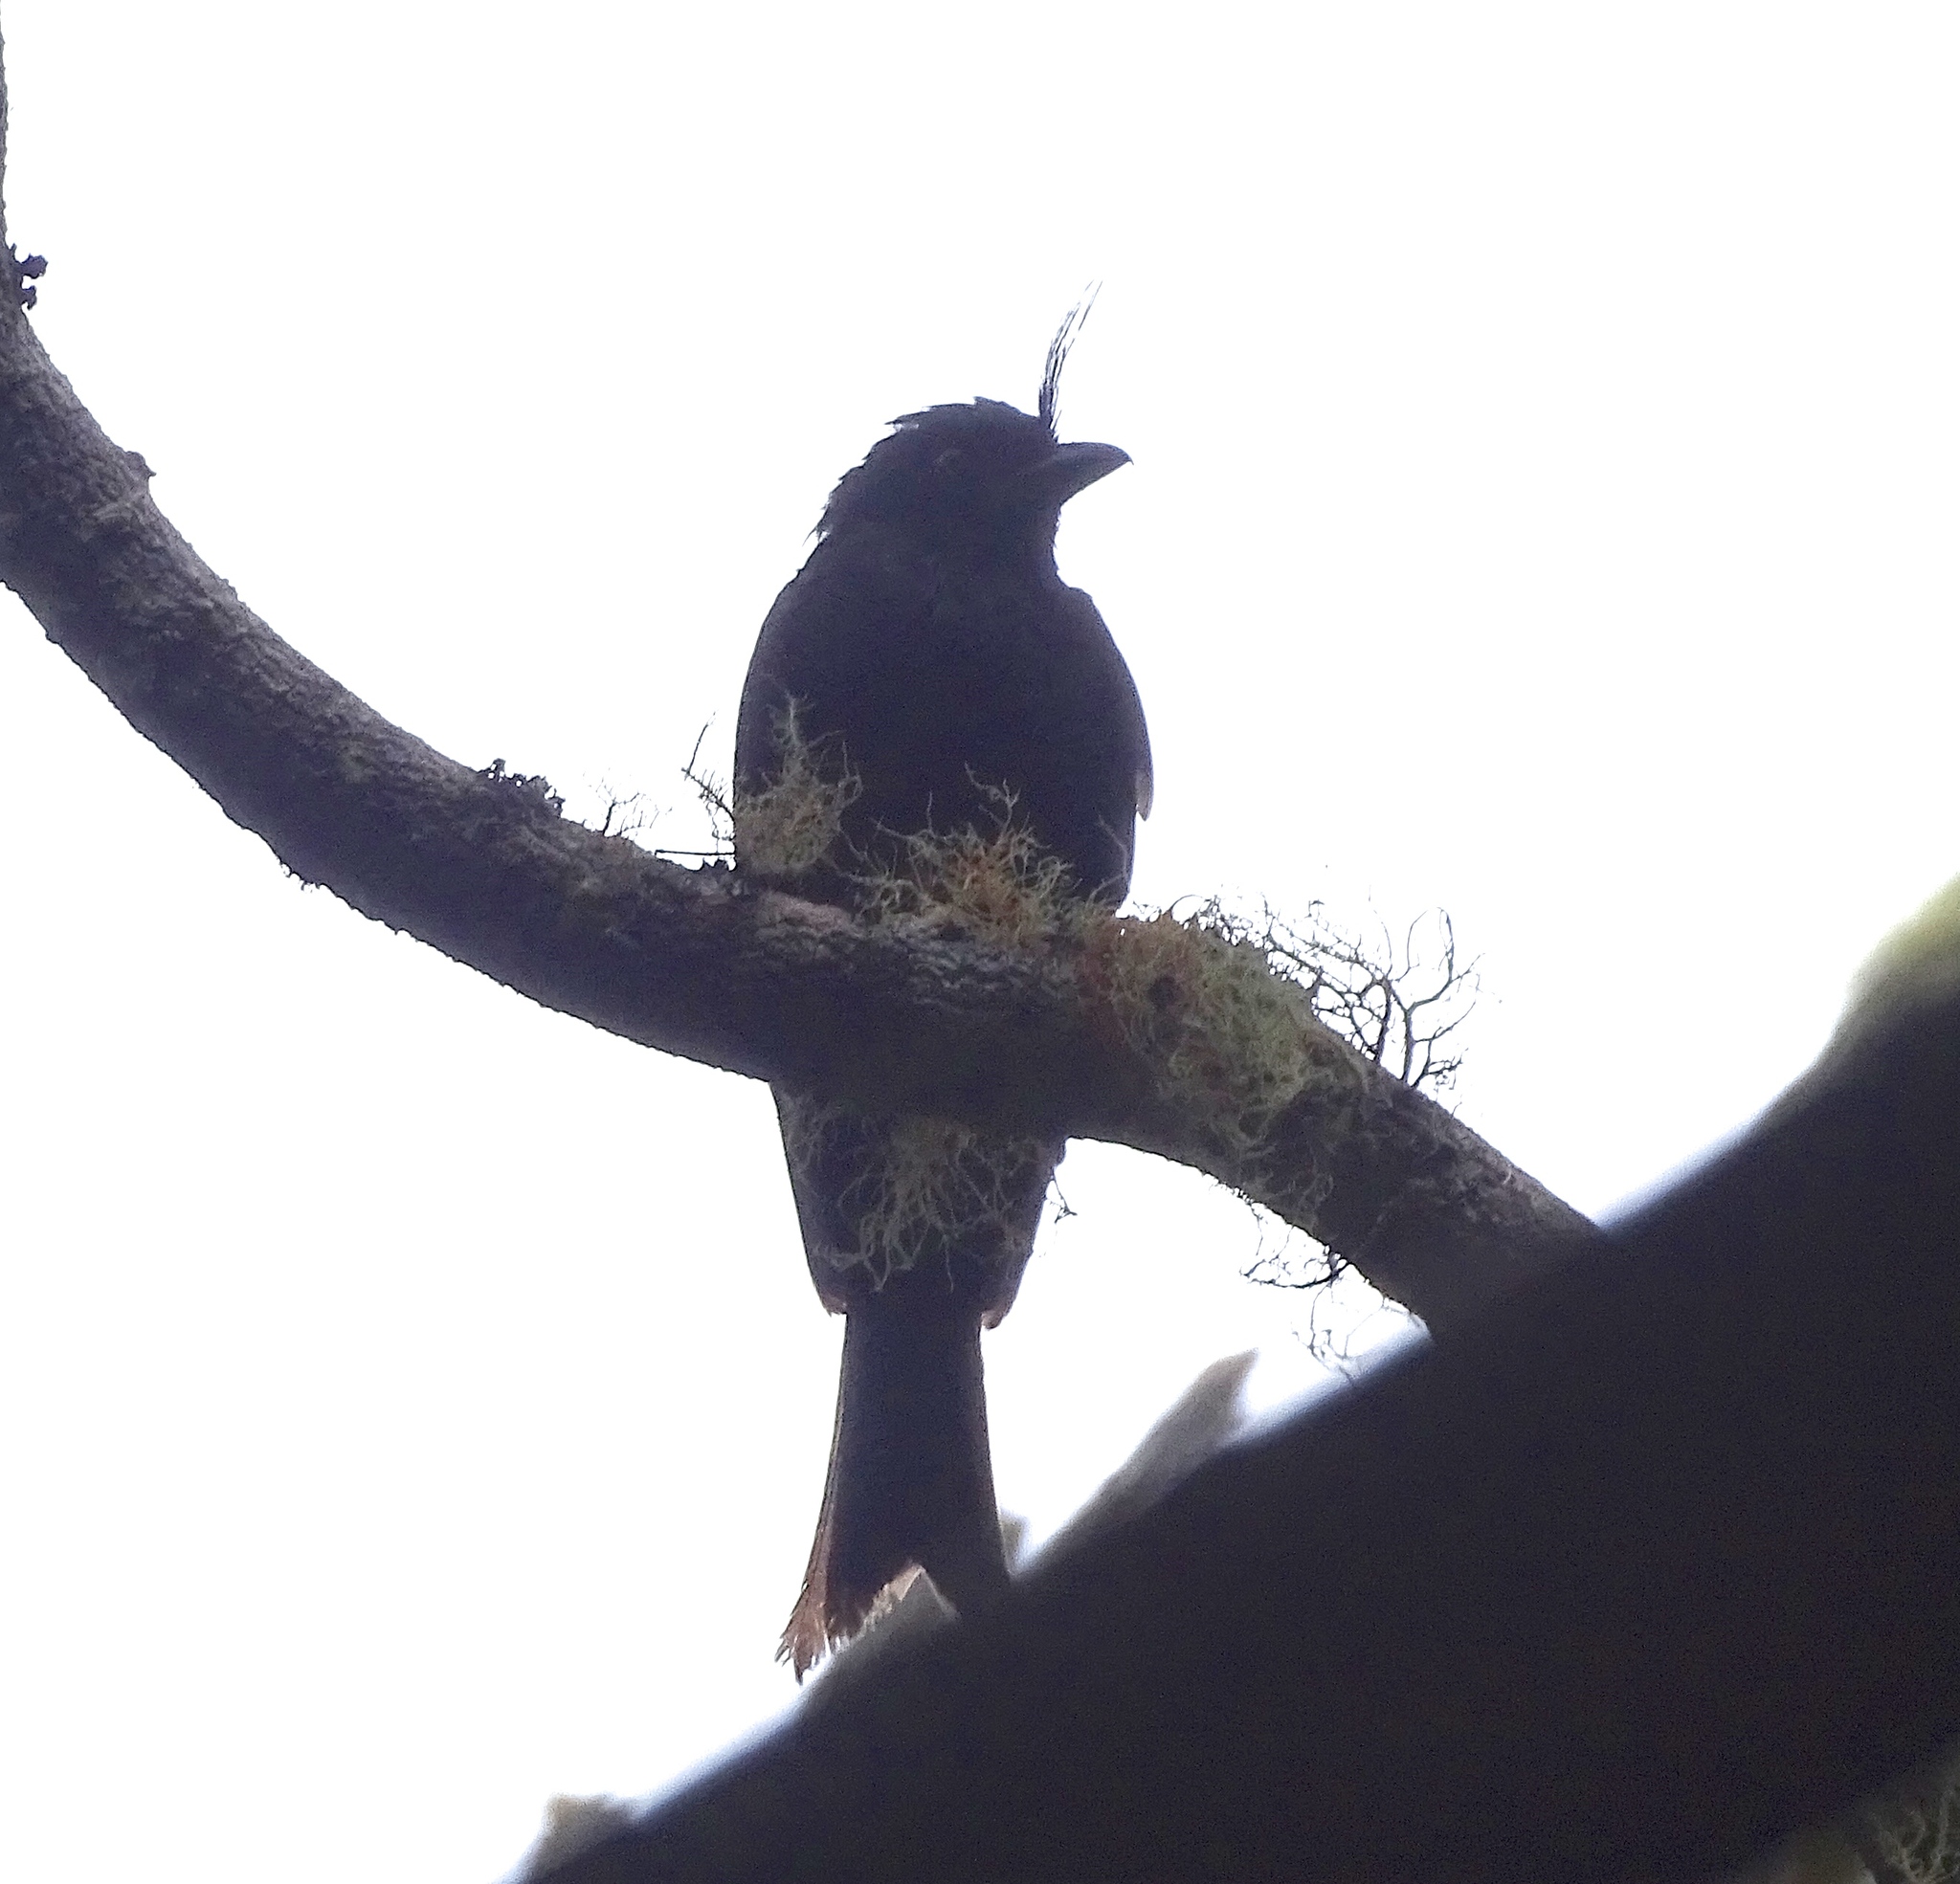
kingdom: Animalia
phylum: Chordata
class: Aves
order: Passeriformes
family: Dicruridae
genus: Dicrurus
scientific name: Dicrurus forficatus
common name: Crested drongo
